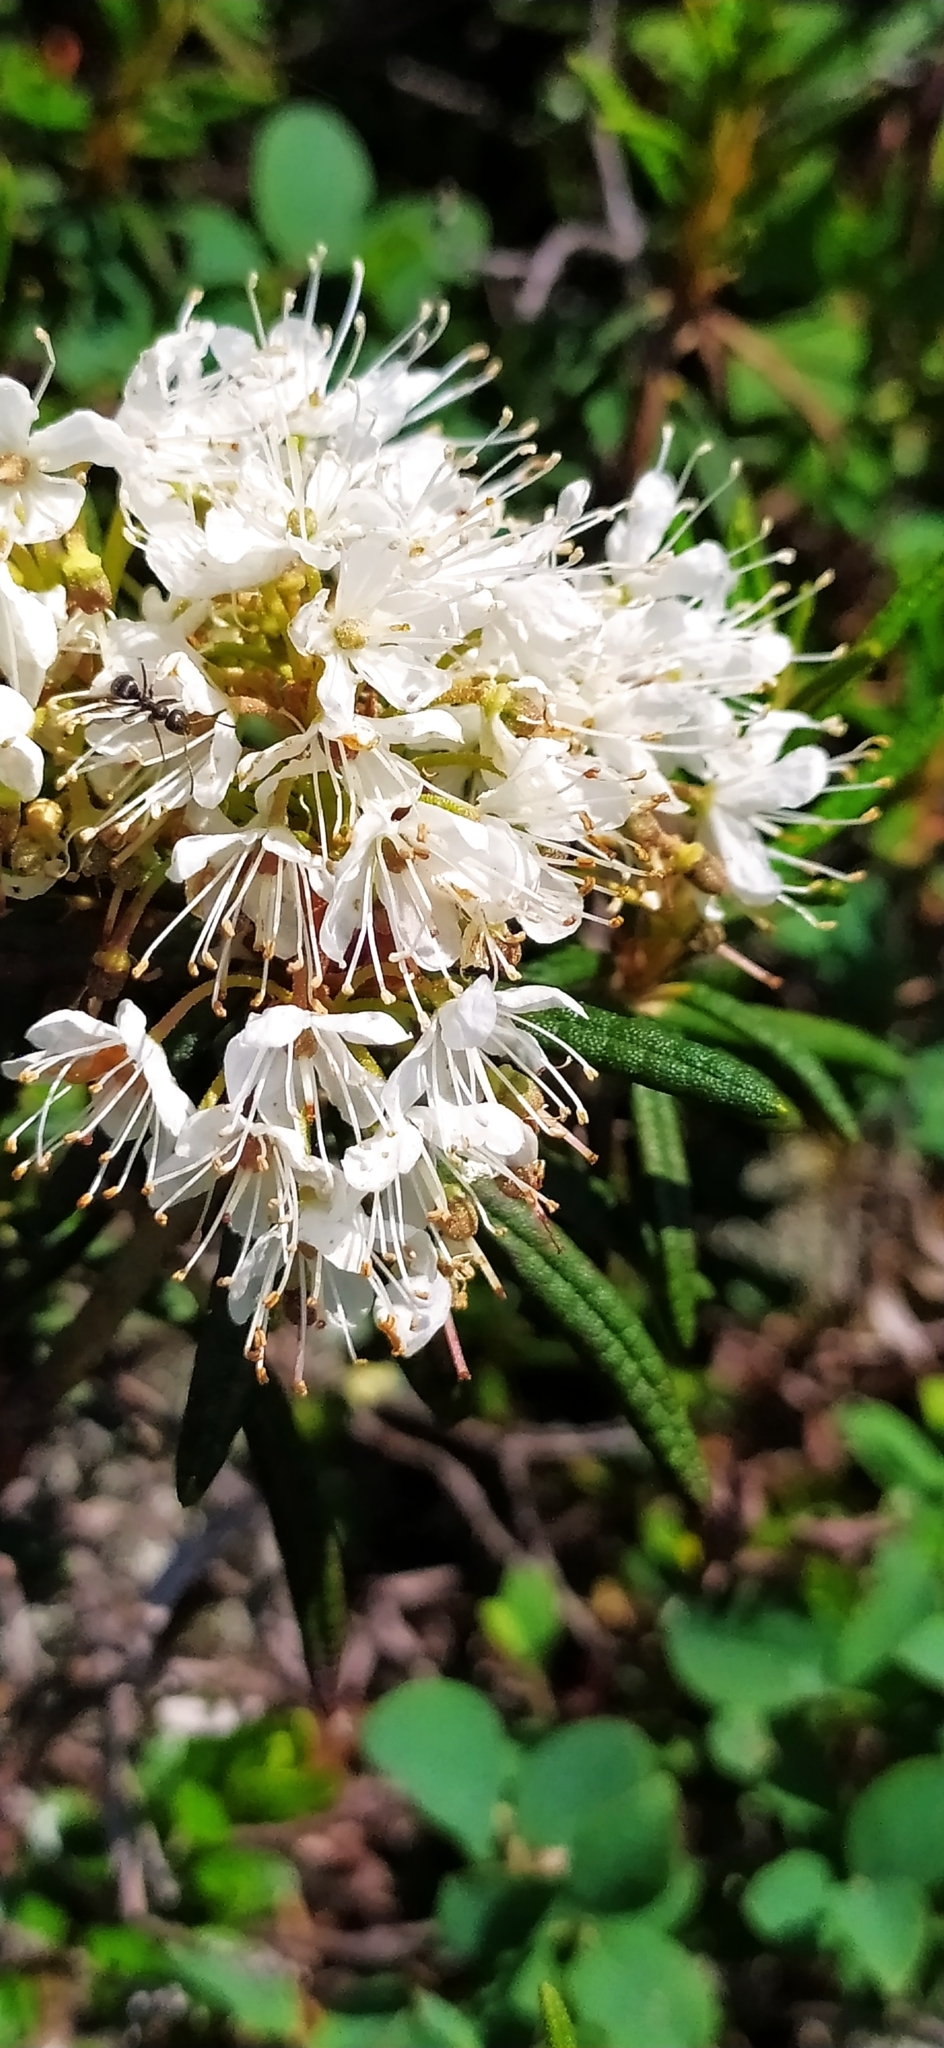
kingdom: Plantae
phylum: Tracheophyta
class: Magnoliopsida
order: Ericales
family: Ericaceae
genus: Rhododendron
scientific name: Rhododendron tomentosum
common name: Marsh labrador tea
